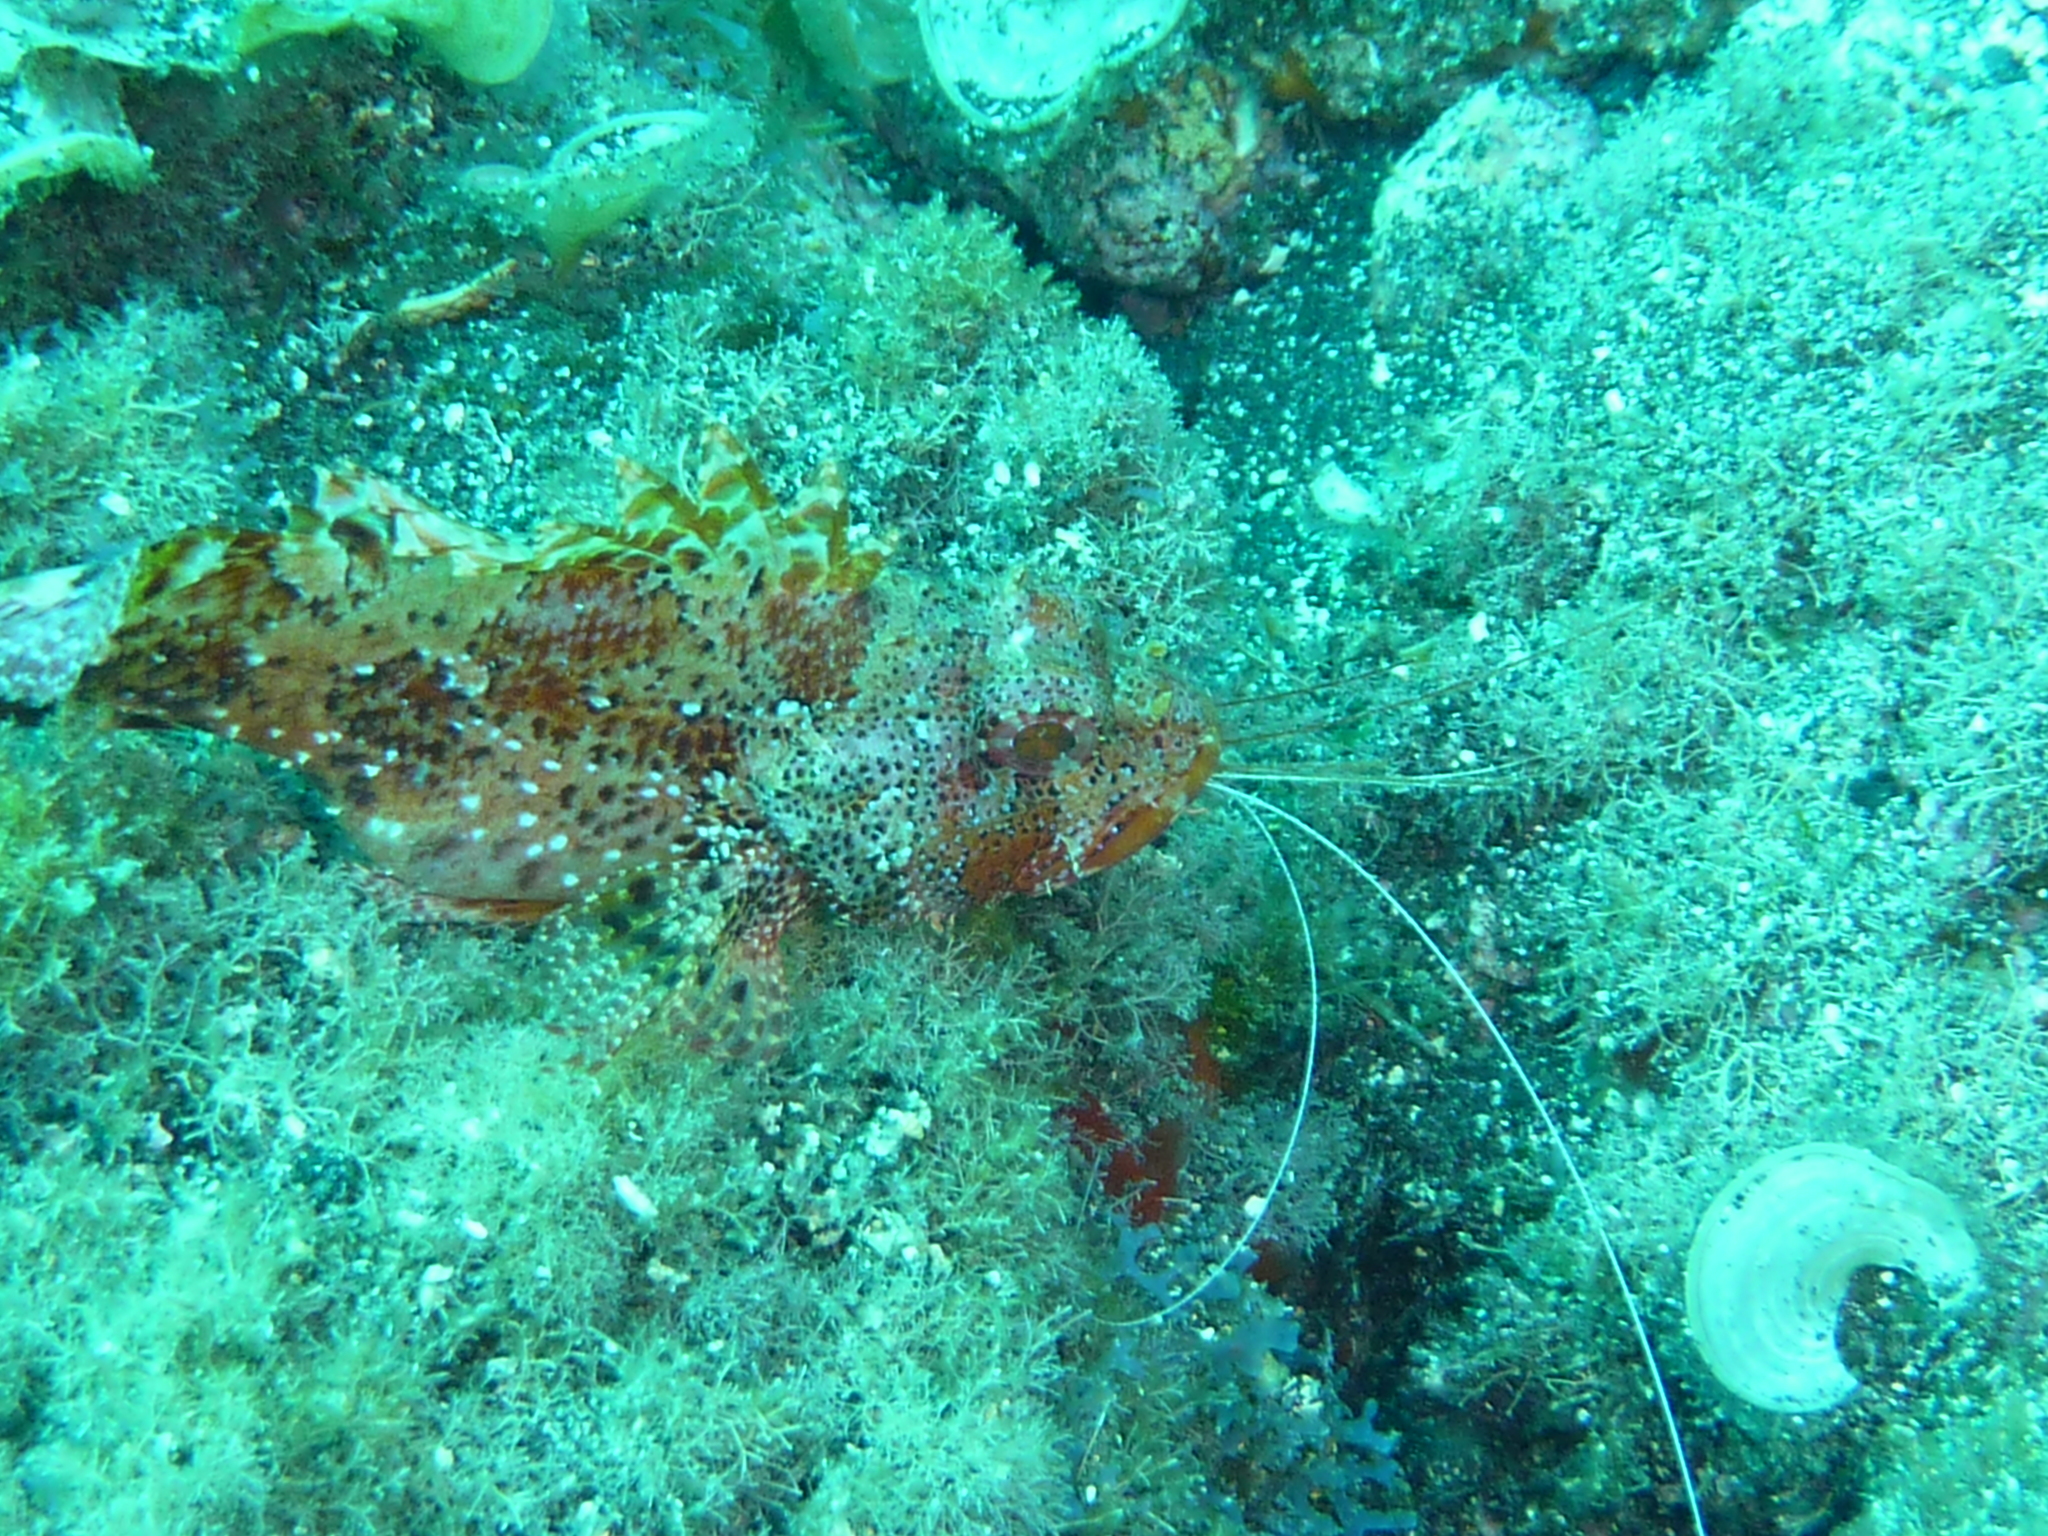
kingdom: Animalia
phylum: Chordata
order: Scorpaeniformes
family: Scorpaenidae
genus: Scorpaena
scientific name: Scorpaena maderensis
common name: Madeira rockfish
